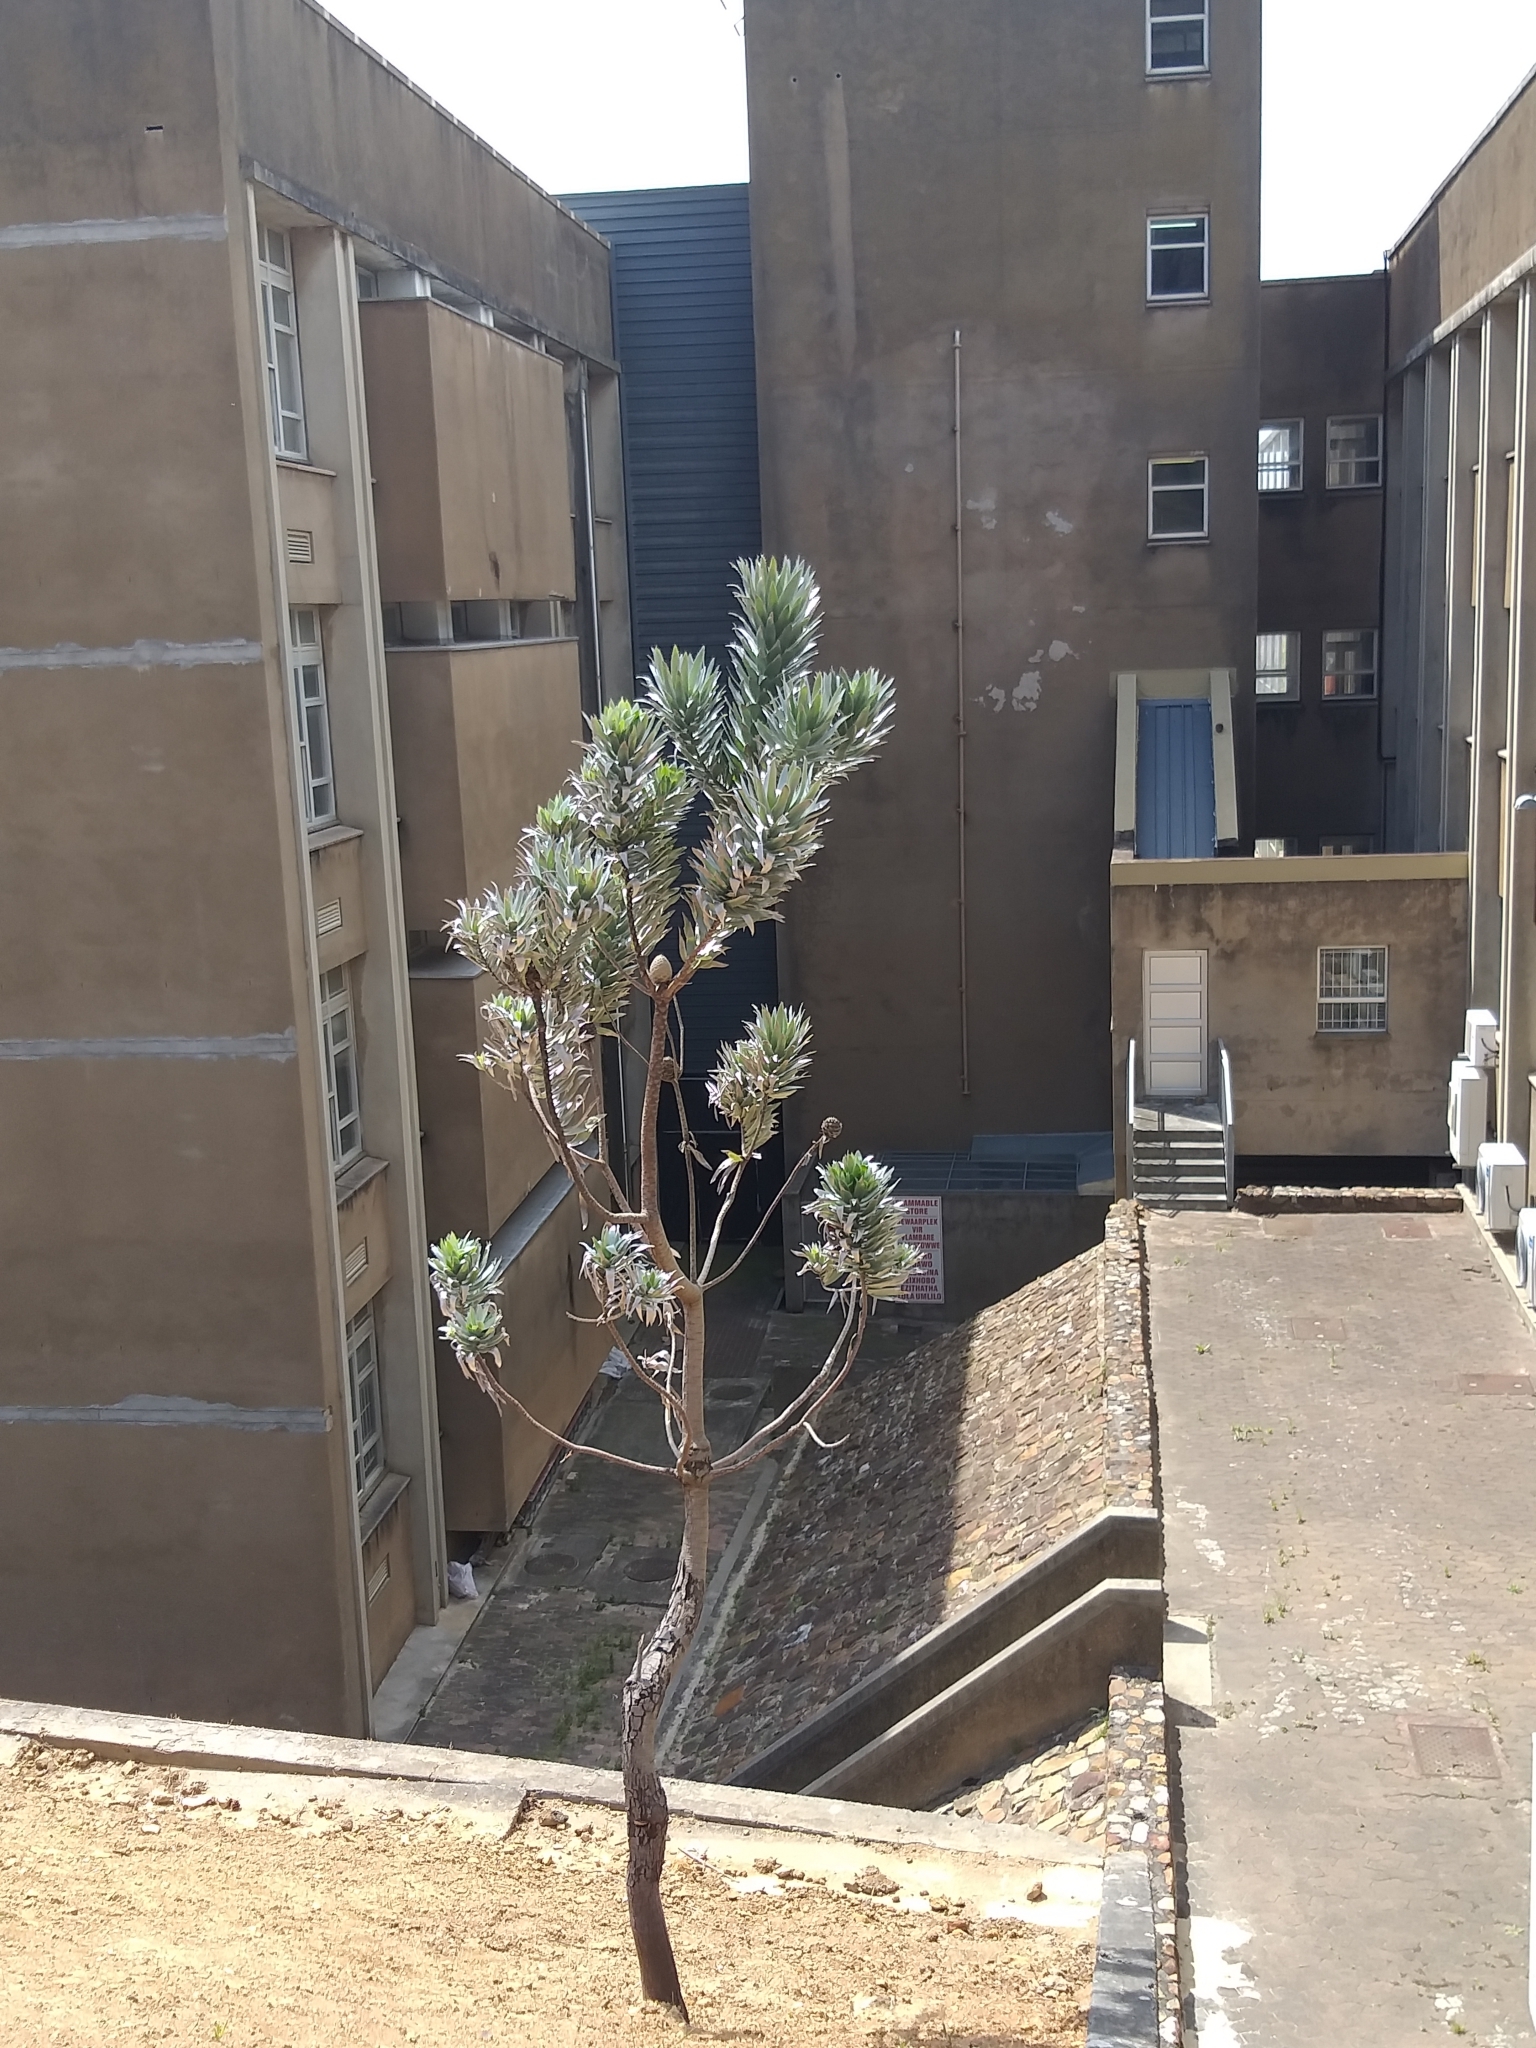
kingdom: Plantae
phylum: Tracheophyta
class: Magnoliopsida
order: Proteales
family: Proteaceae
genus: Leucadendron
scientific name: Leucadendron argenteum
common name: Cape silver tree
